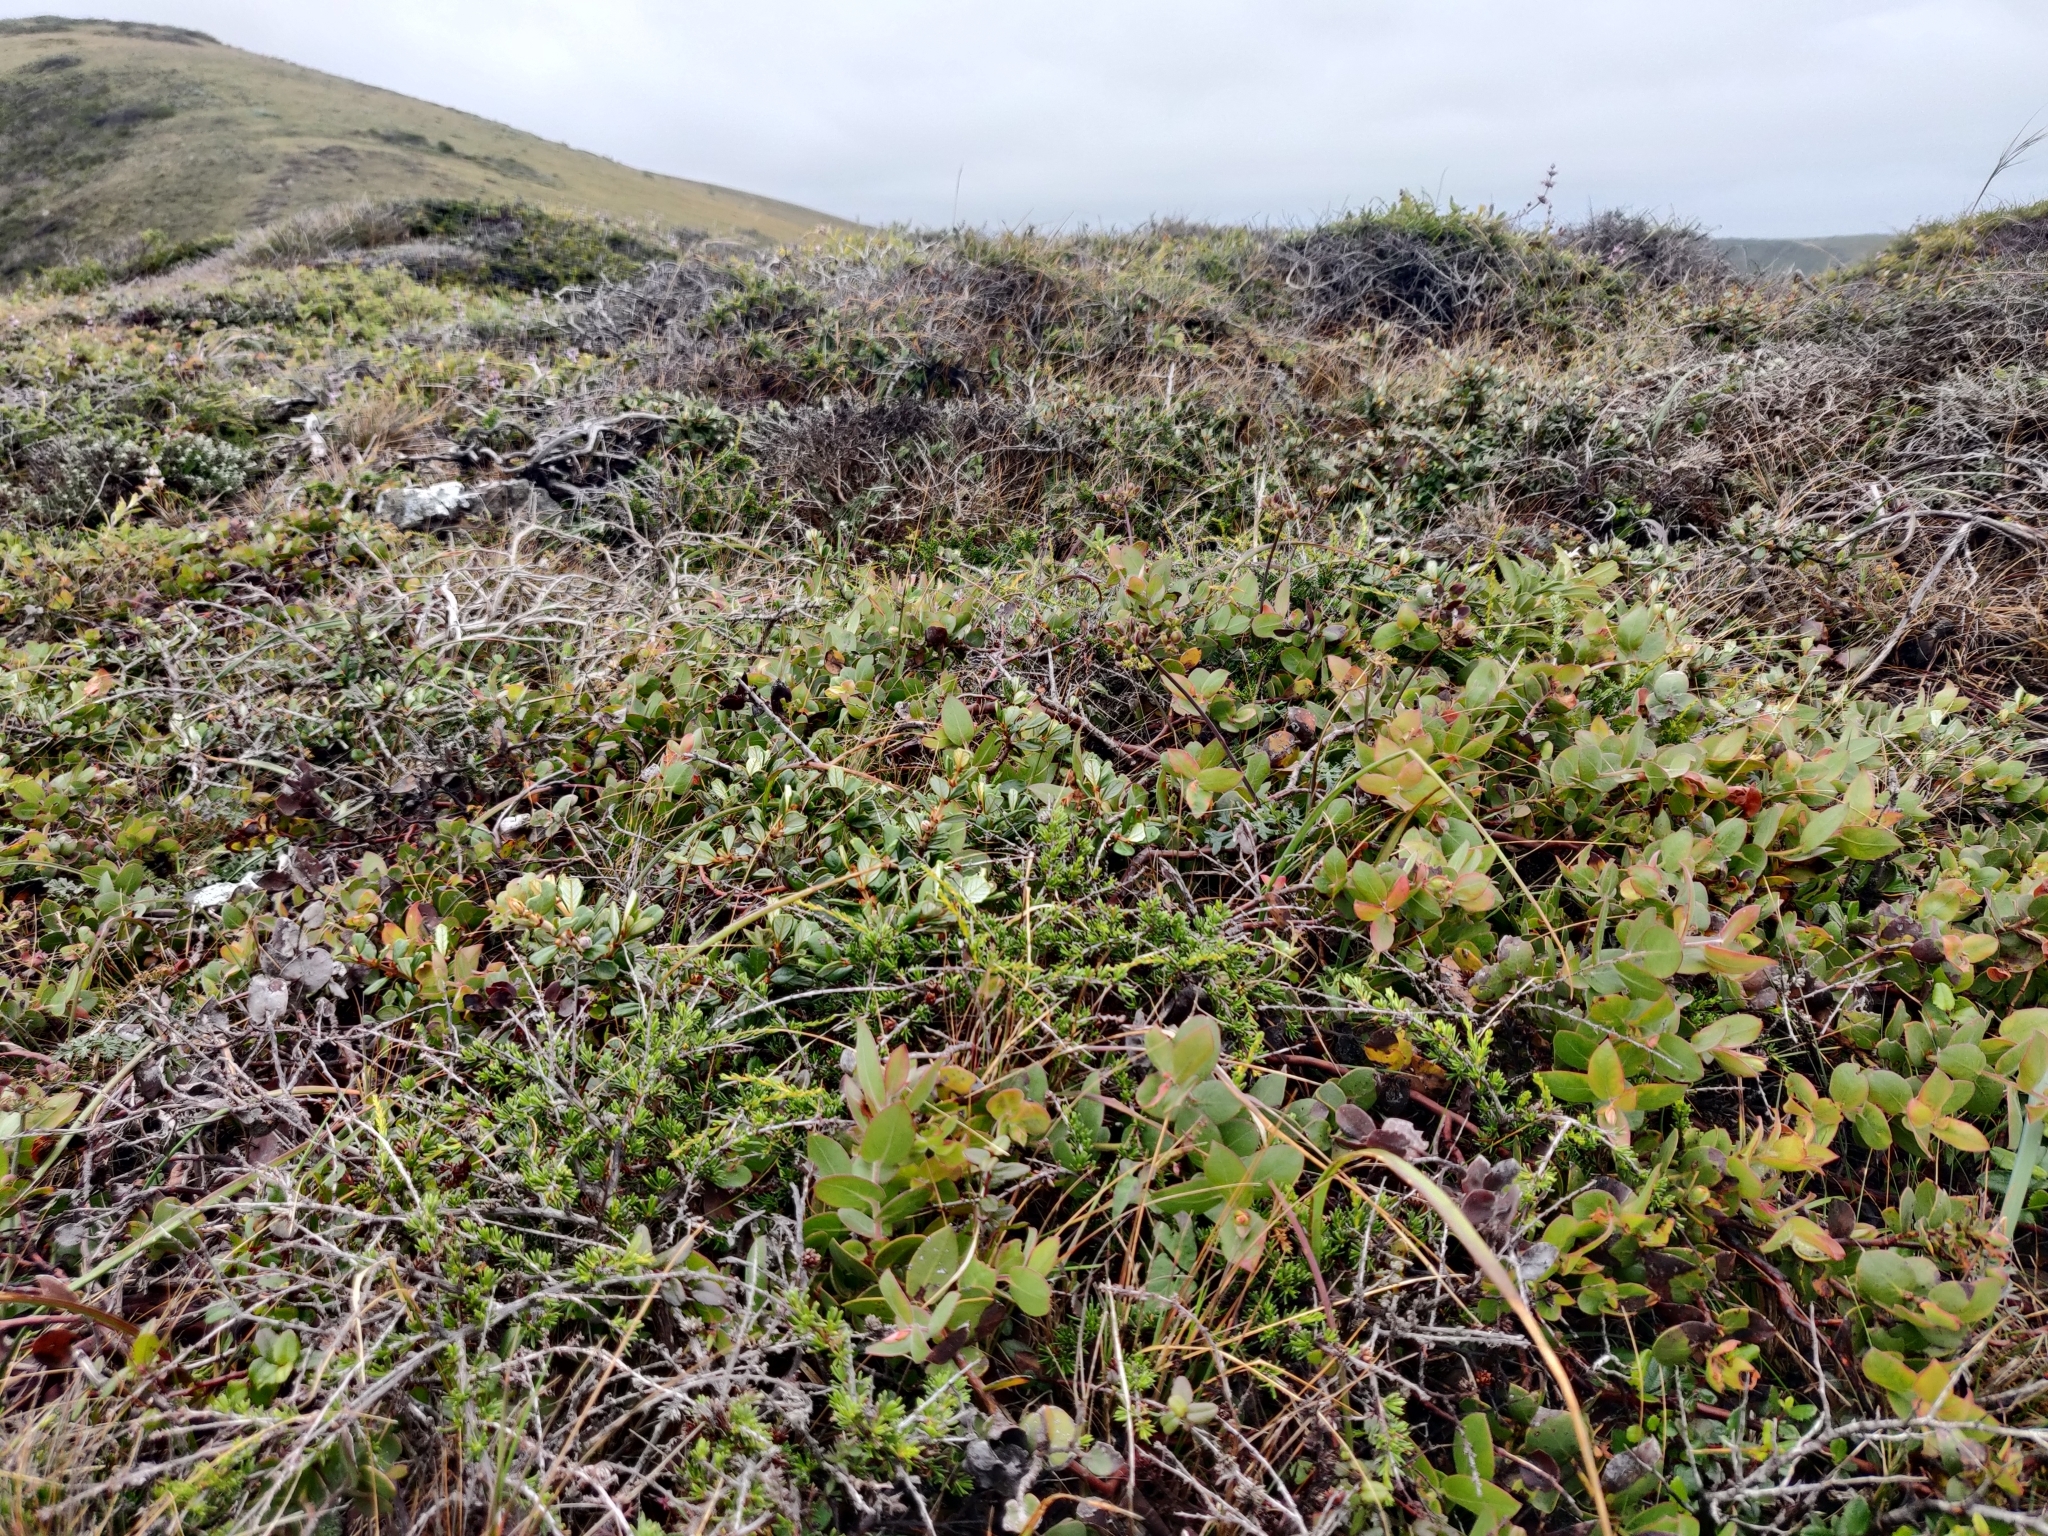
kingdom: Plantae
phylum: Tracheophyta
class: Magnoliopsida
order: Ericales
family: Ericaceae
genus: Arctostaphylos
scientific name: Arctostaphylos cruzensis
